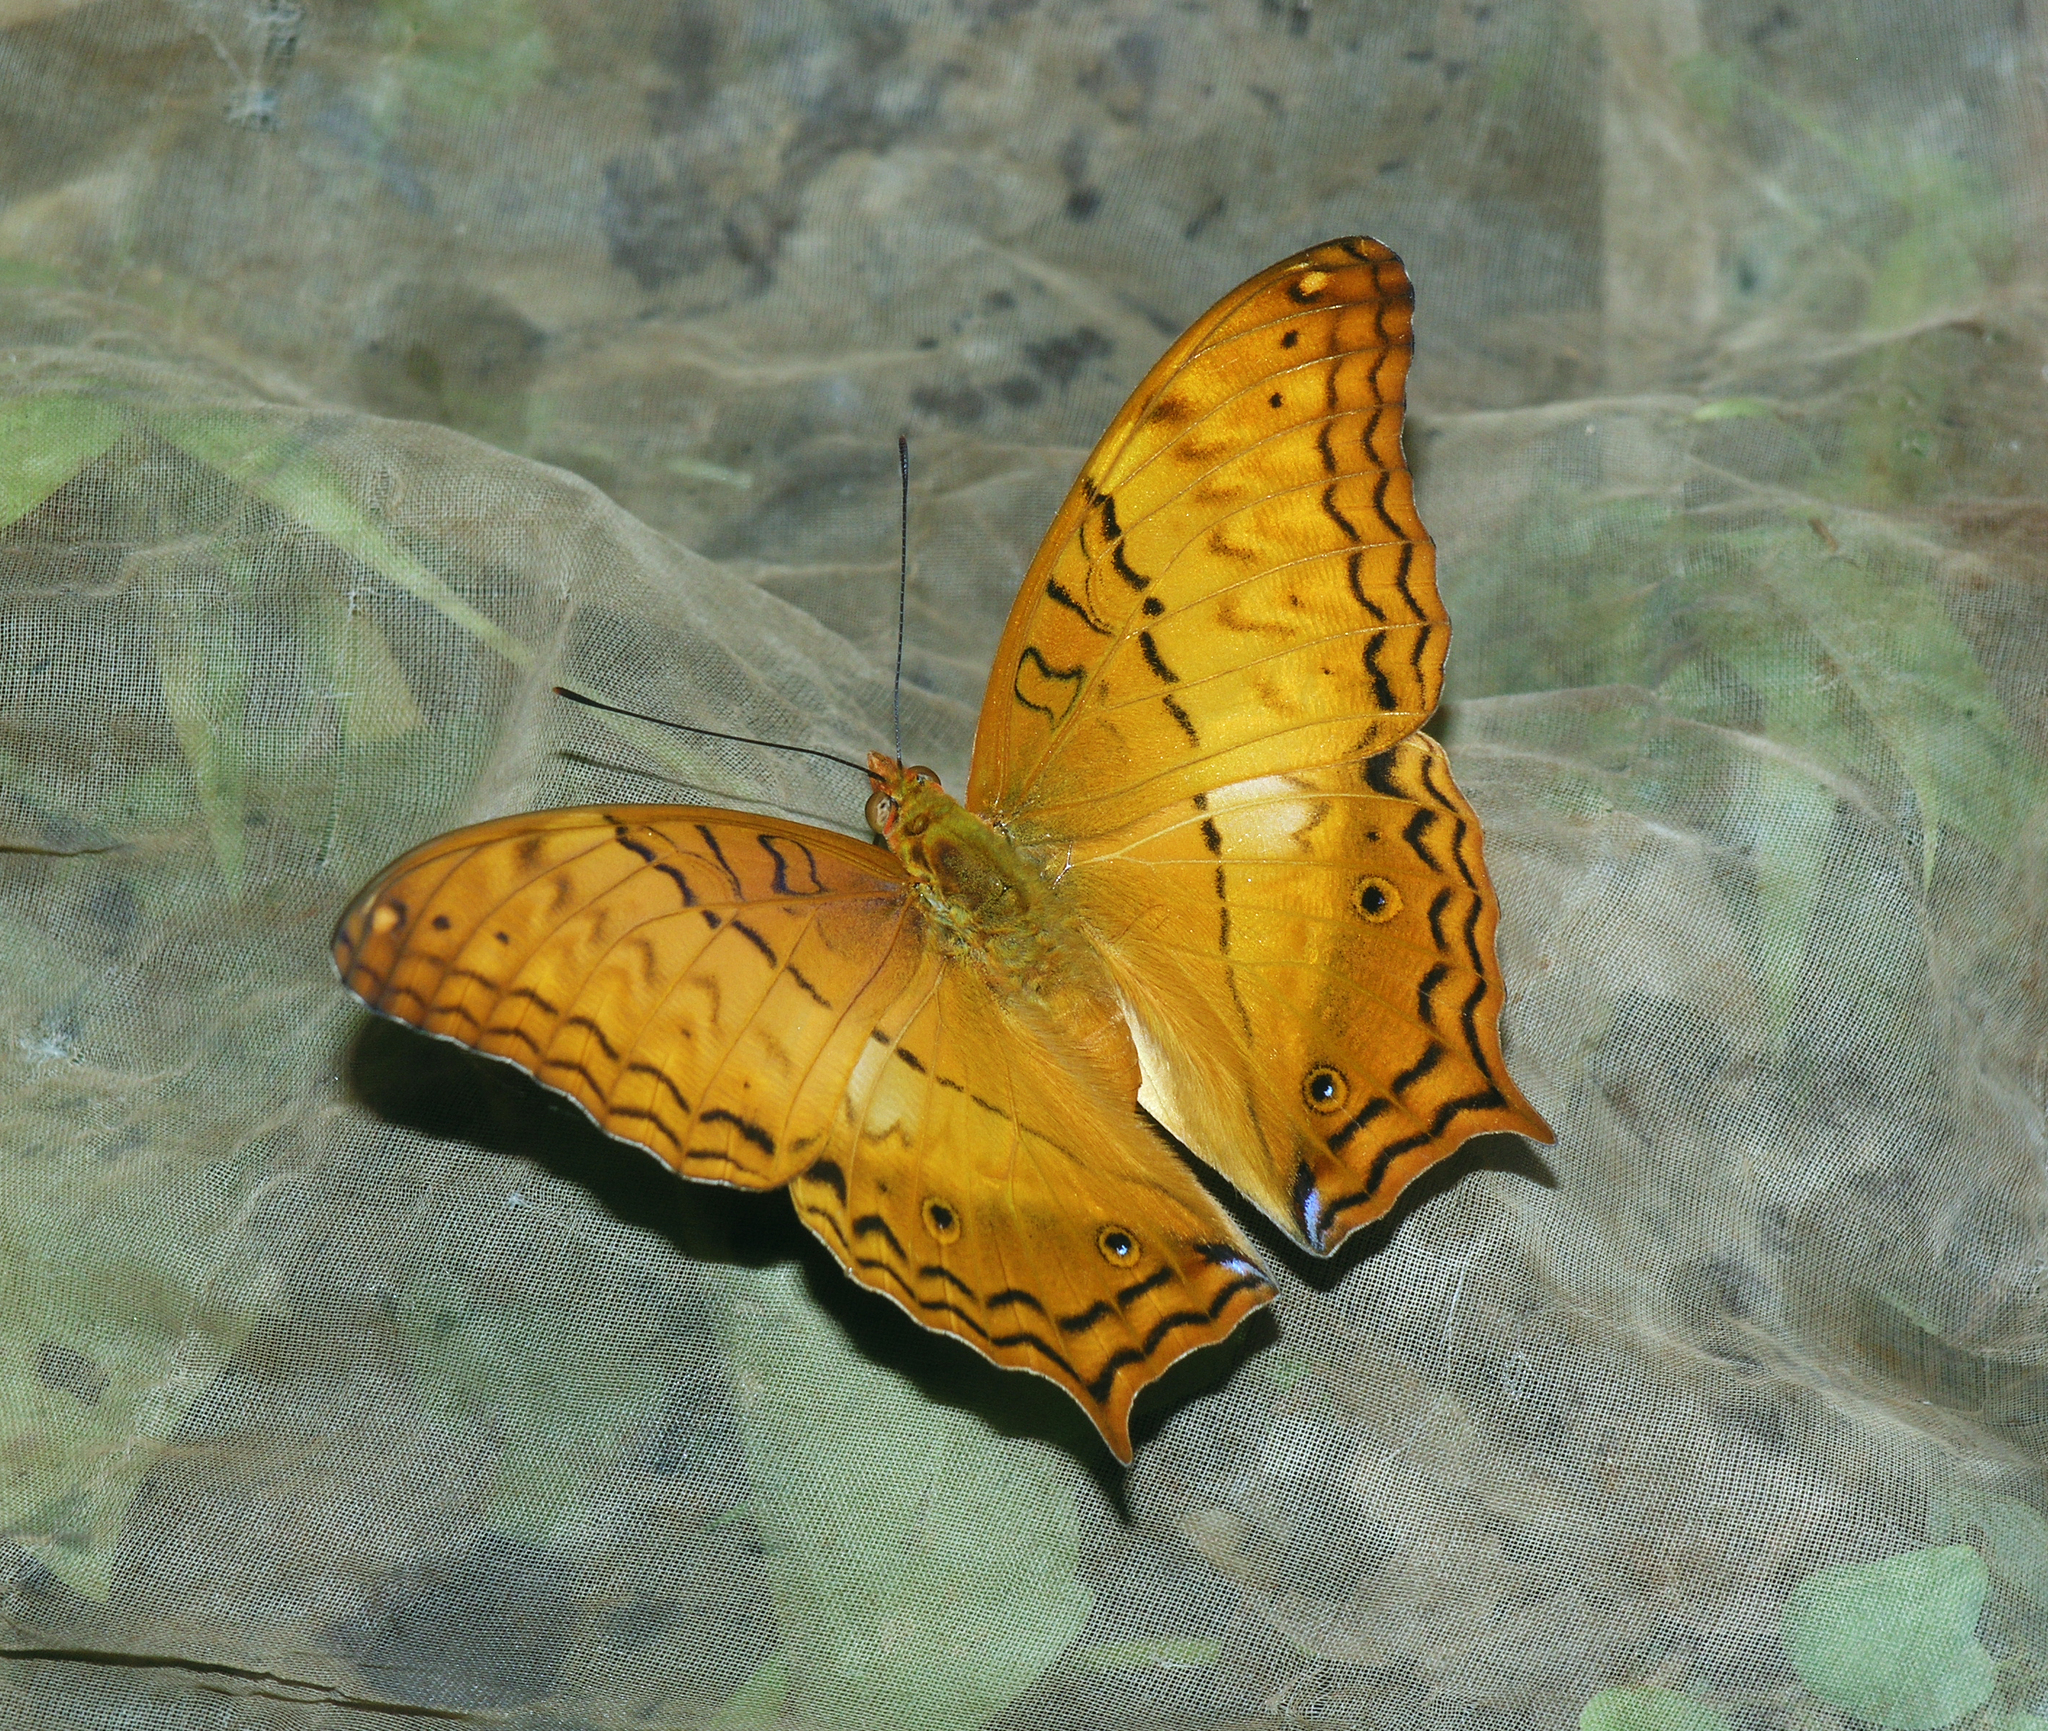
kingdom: Animalia
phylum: Arthropoda
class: Insecta
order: Lepidoptera
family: Nymphalidae
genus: Vindula
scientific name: Vindula erota
